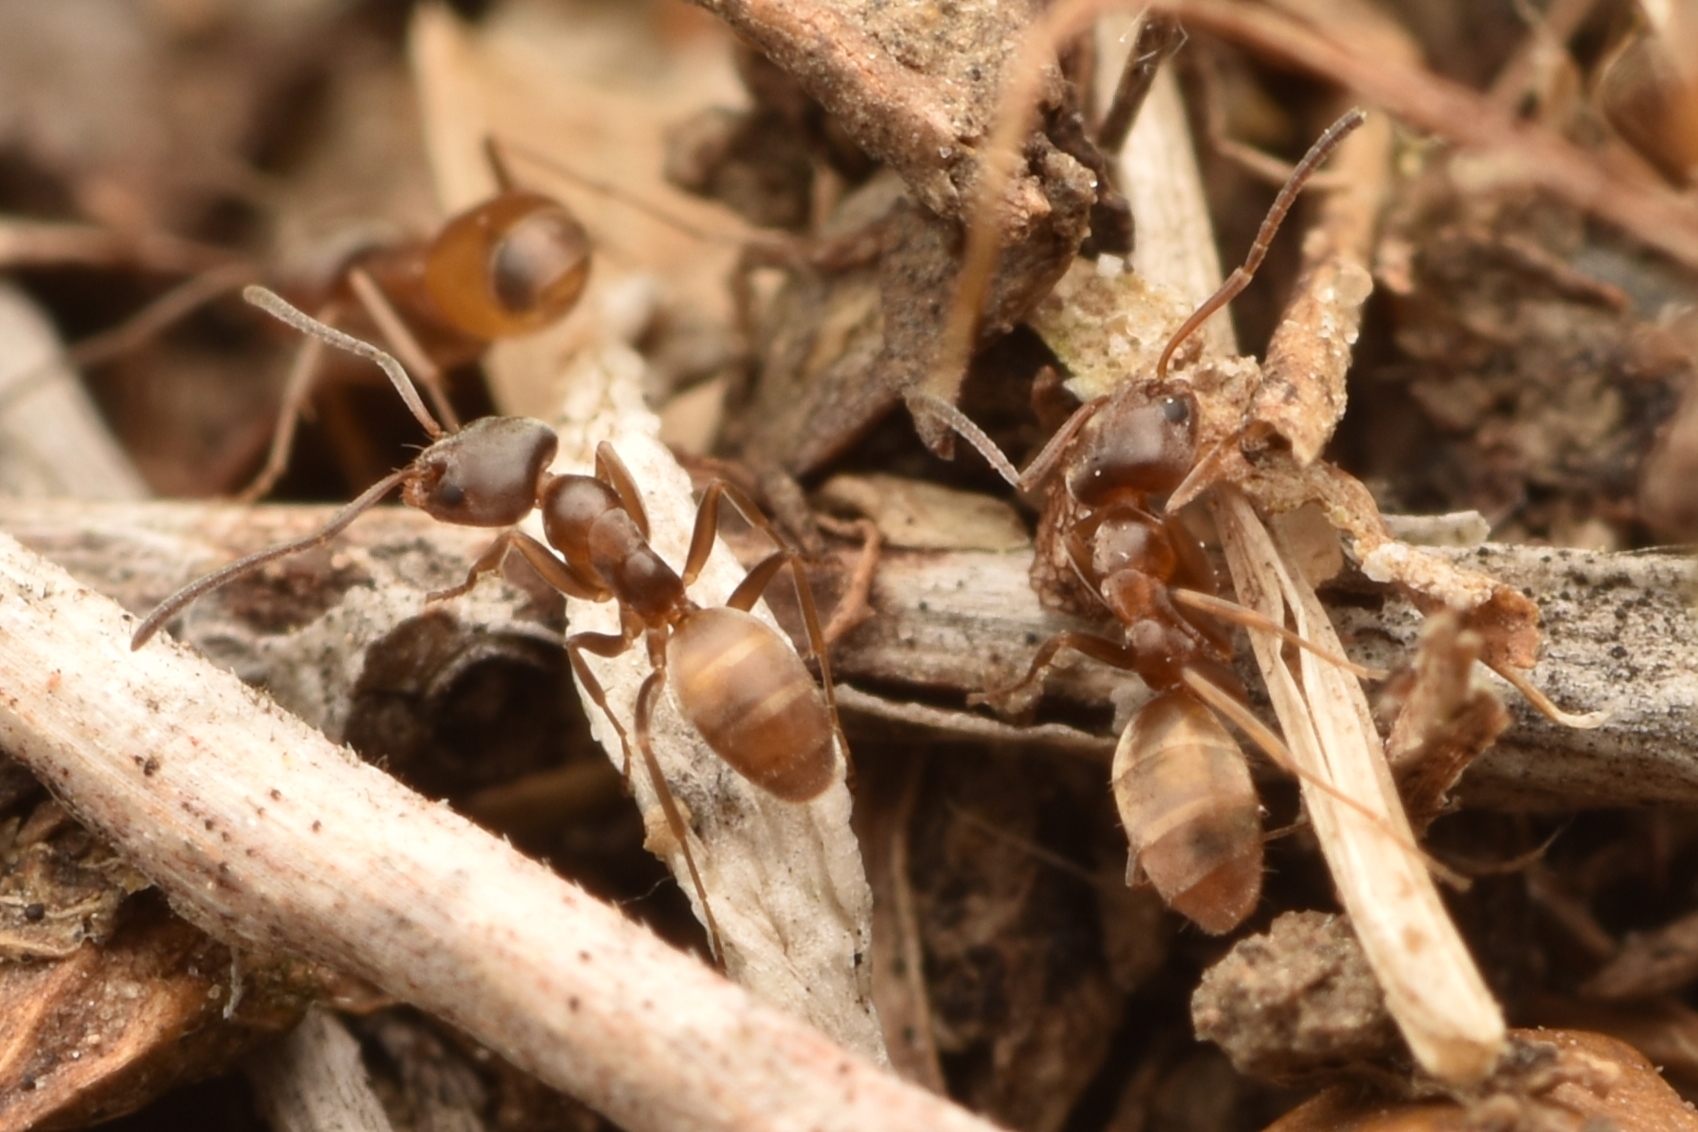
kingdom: Animalia
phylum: Arthropoda
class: Insecta
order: Hymenoptera
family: Formicidae
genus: Forelius
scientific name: Forelius pruinosus
